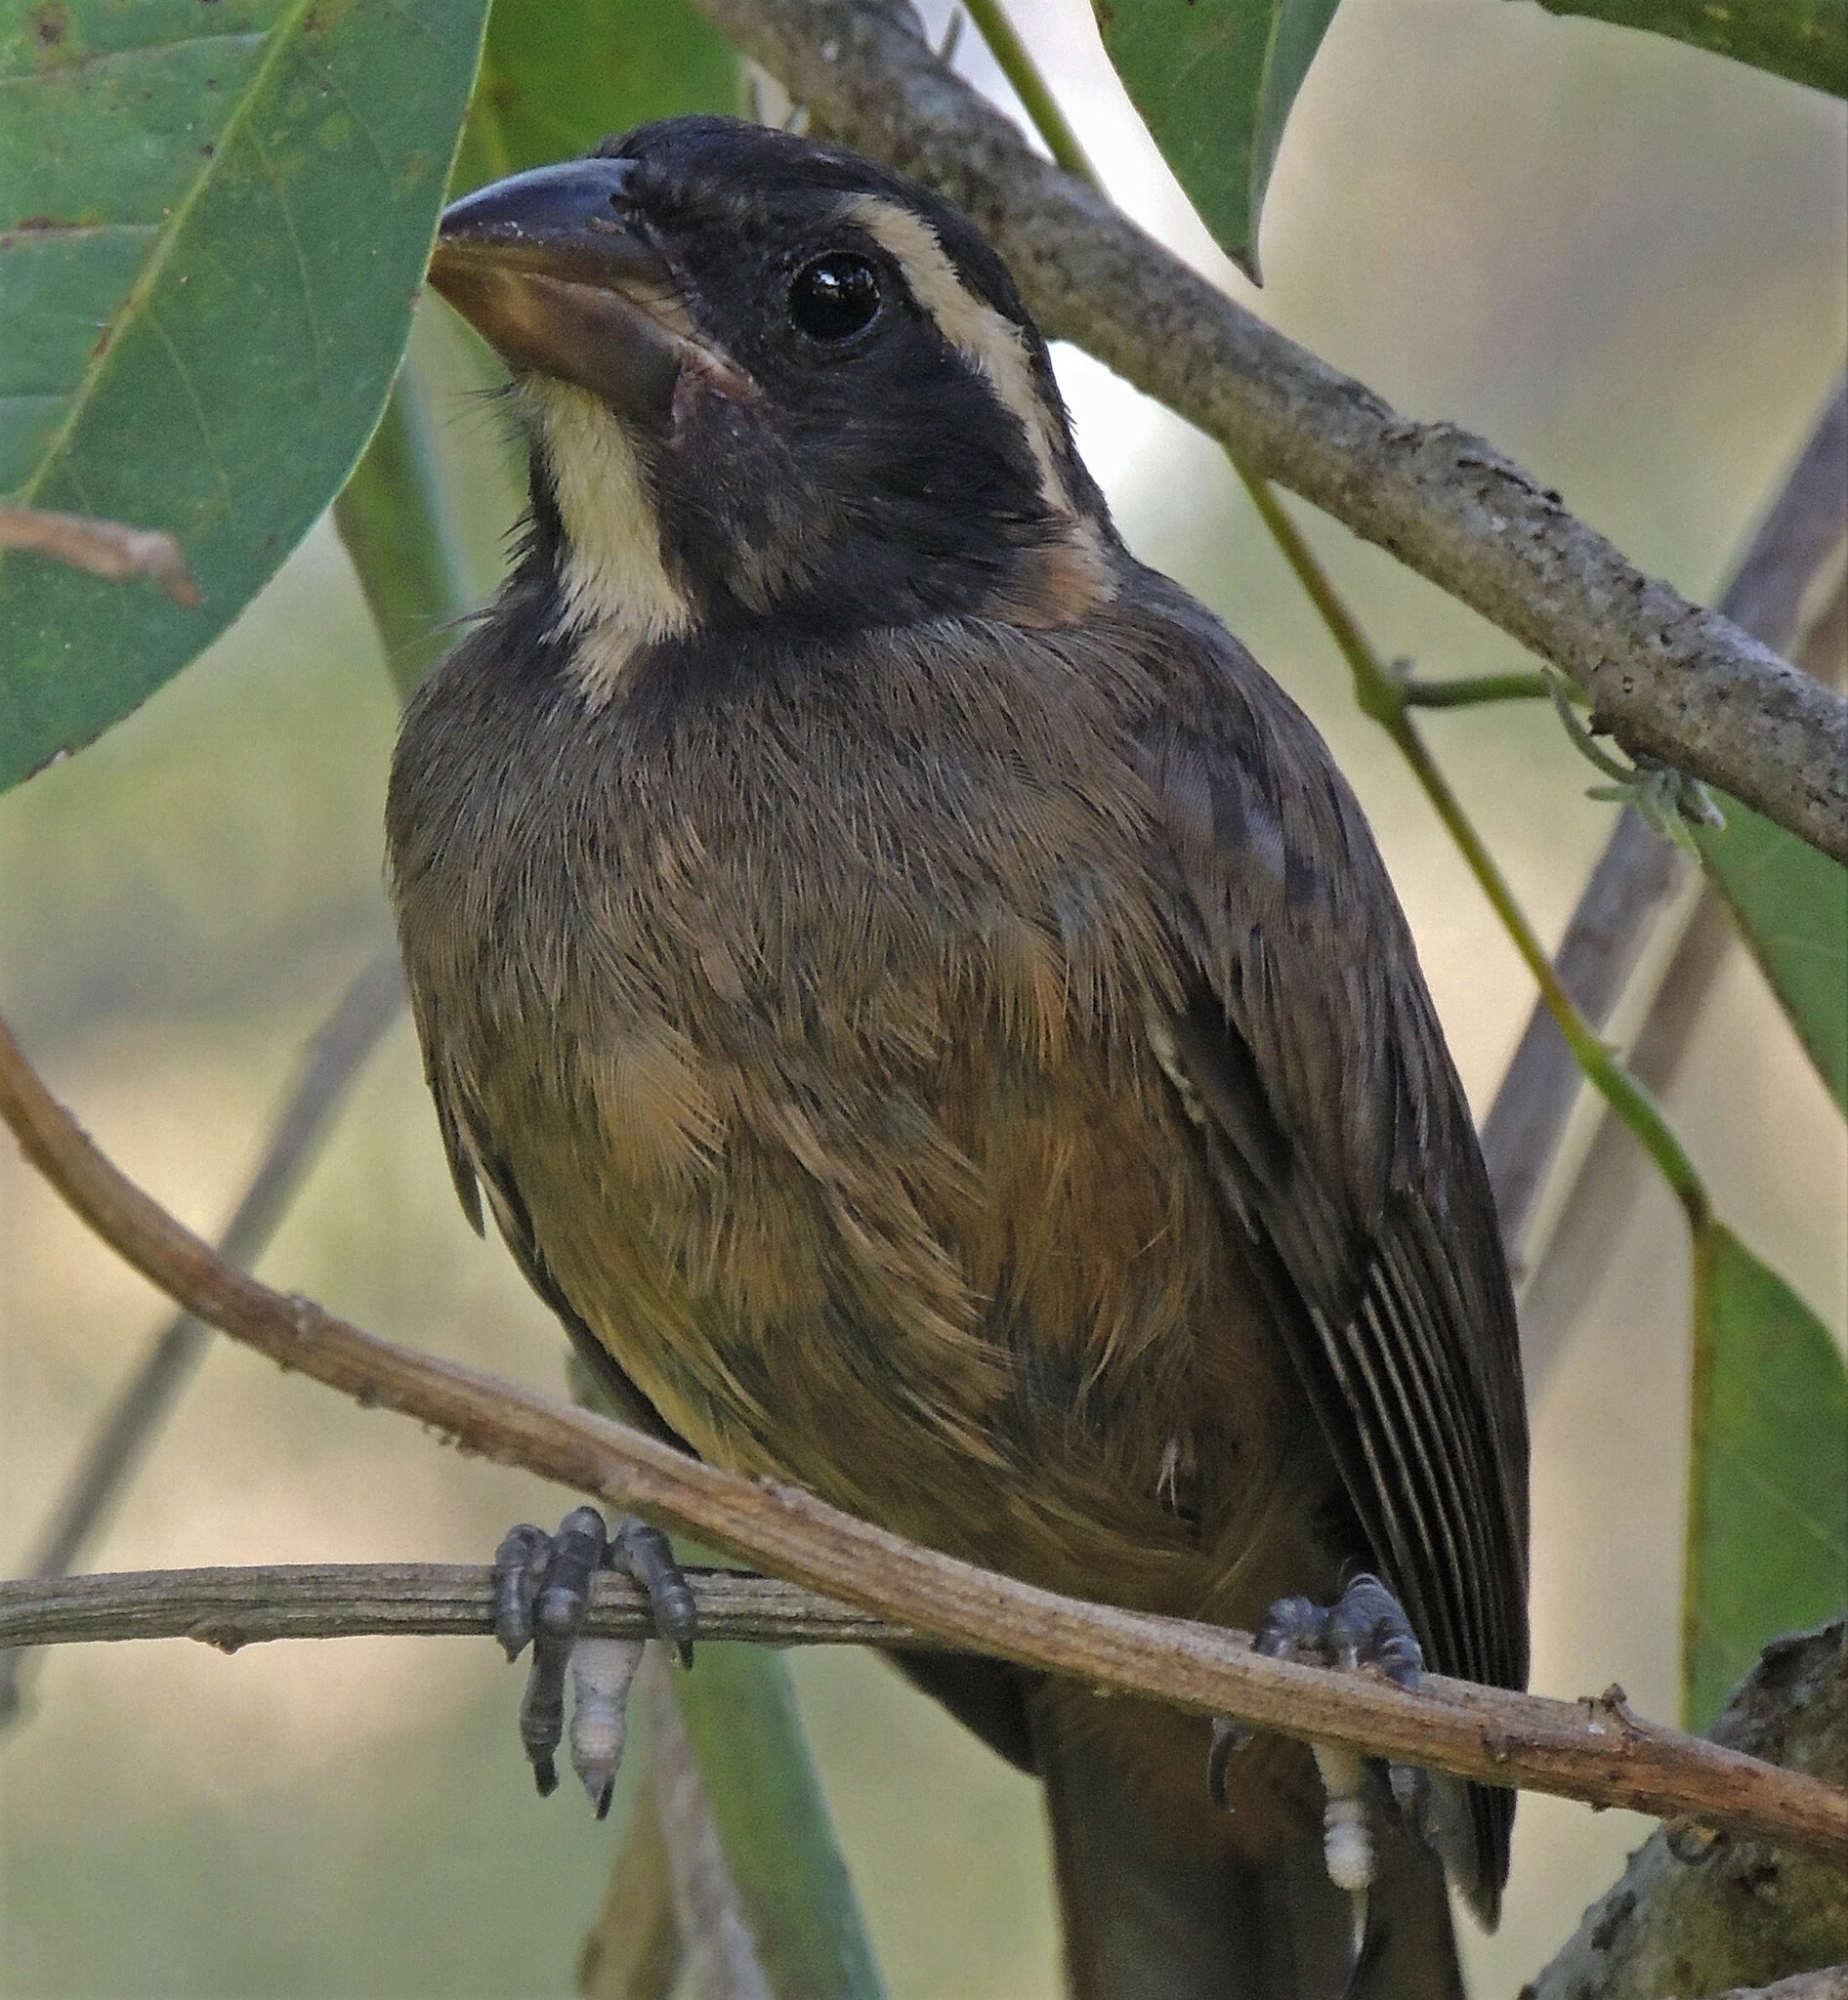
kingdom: Animalia
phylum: Chordata
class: Aves
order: Passeriformes
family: Thraupidae
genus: Saltator
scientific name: Saltator aurantiirostris
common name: Golden-billed saltator
